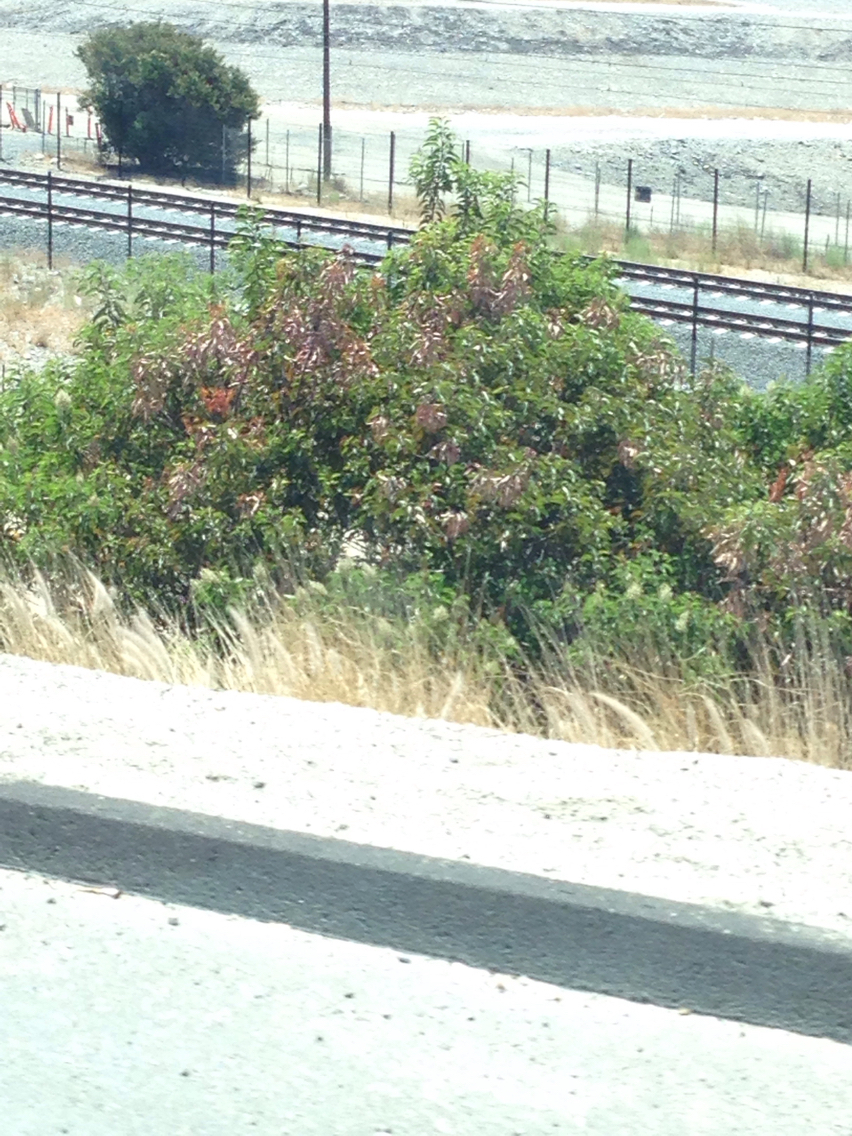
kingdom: Plantae
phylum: Tracheophyta
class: Magnoliopsida
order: Sapindales
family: Anacardiaceae
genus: Malosma
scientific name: Malosma laurina
